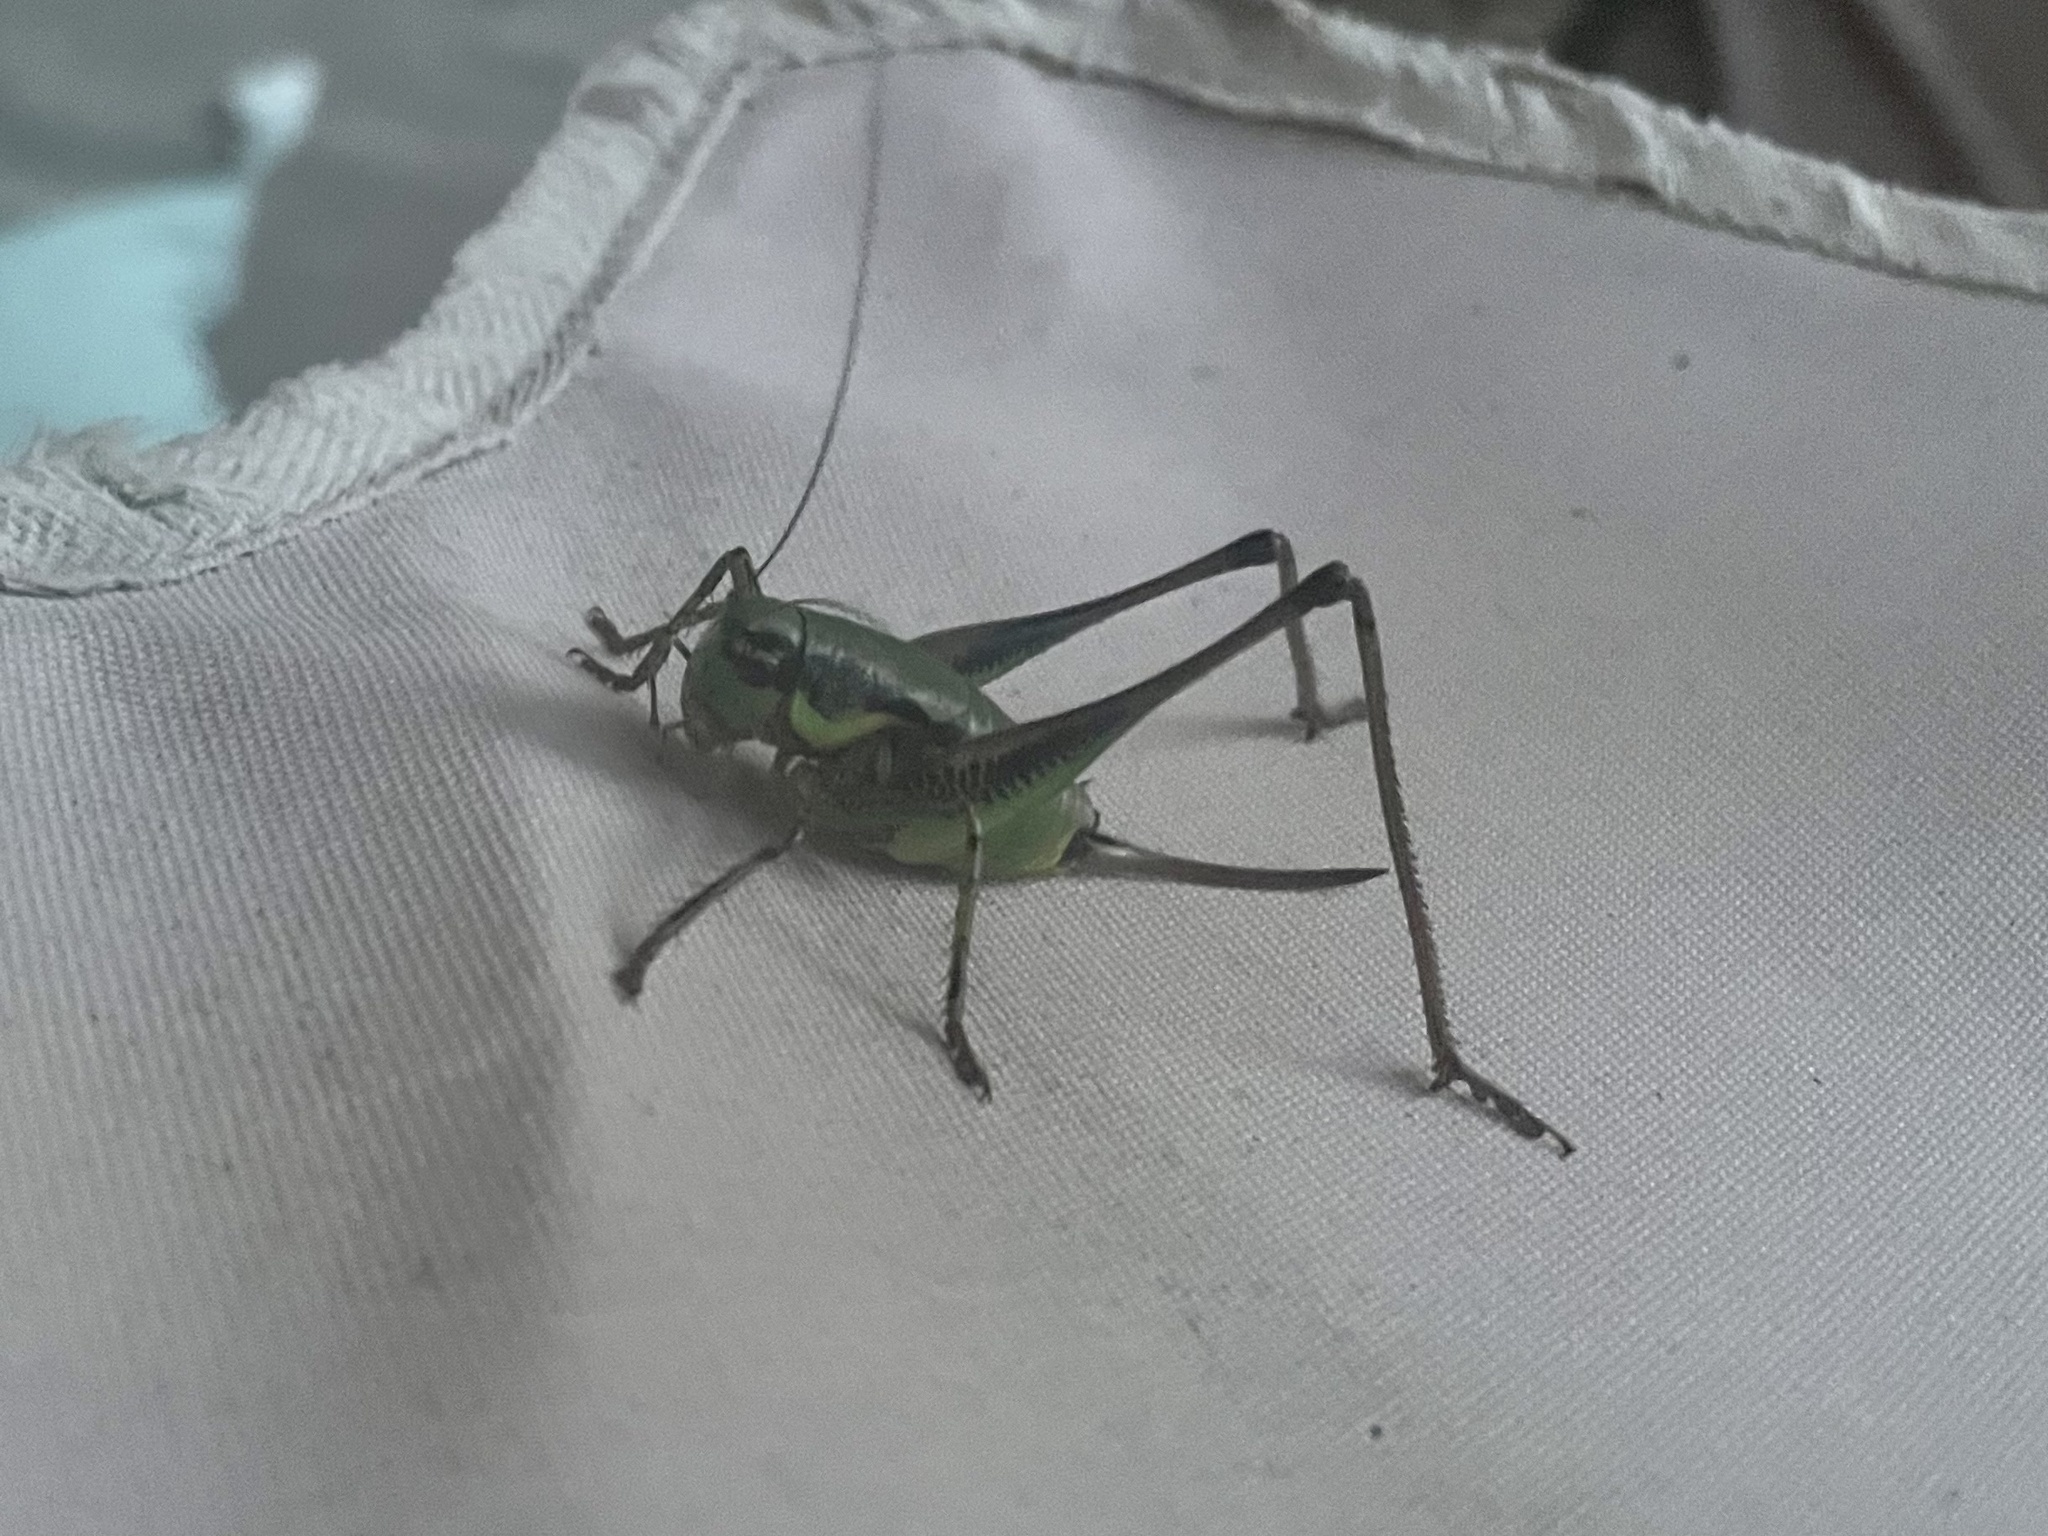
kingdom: Animalia
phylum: Arthropoda
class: Insecta
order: Orthoptera
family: Tettigoniidae
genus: Eupholidoptera
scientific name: Eupholidoptera schmidti
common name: Schmidt's marbled bush-cricket
